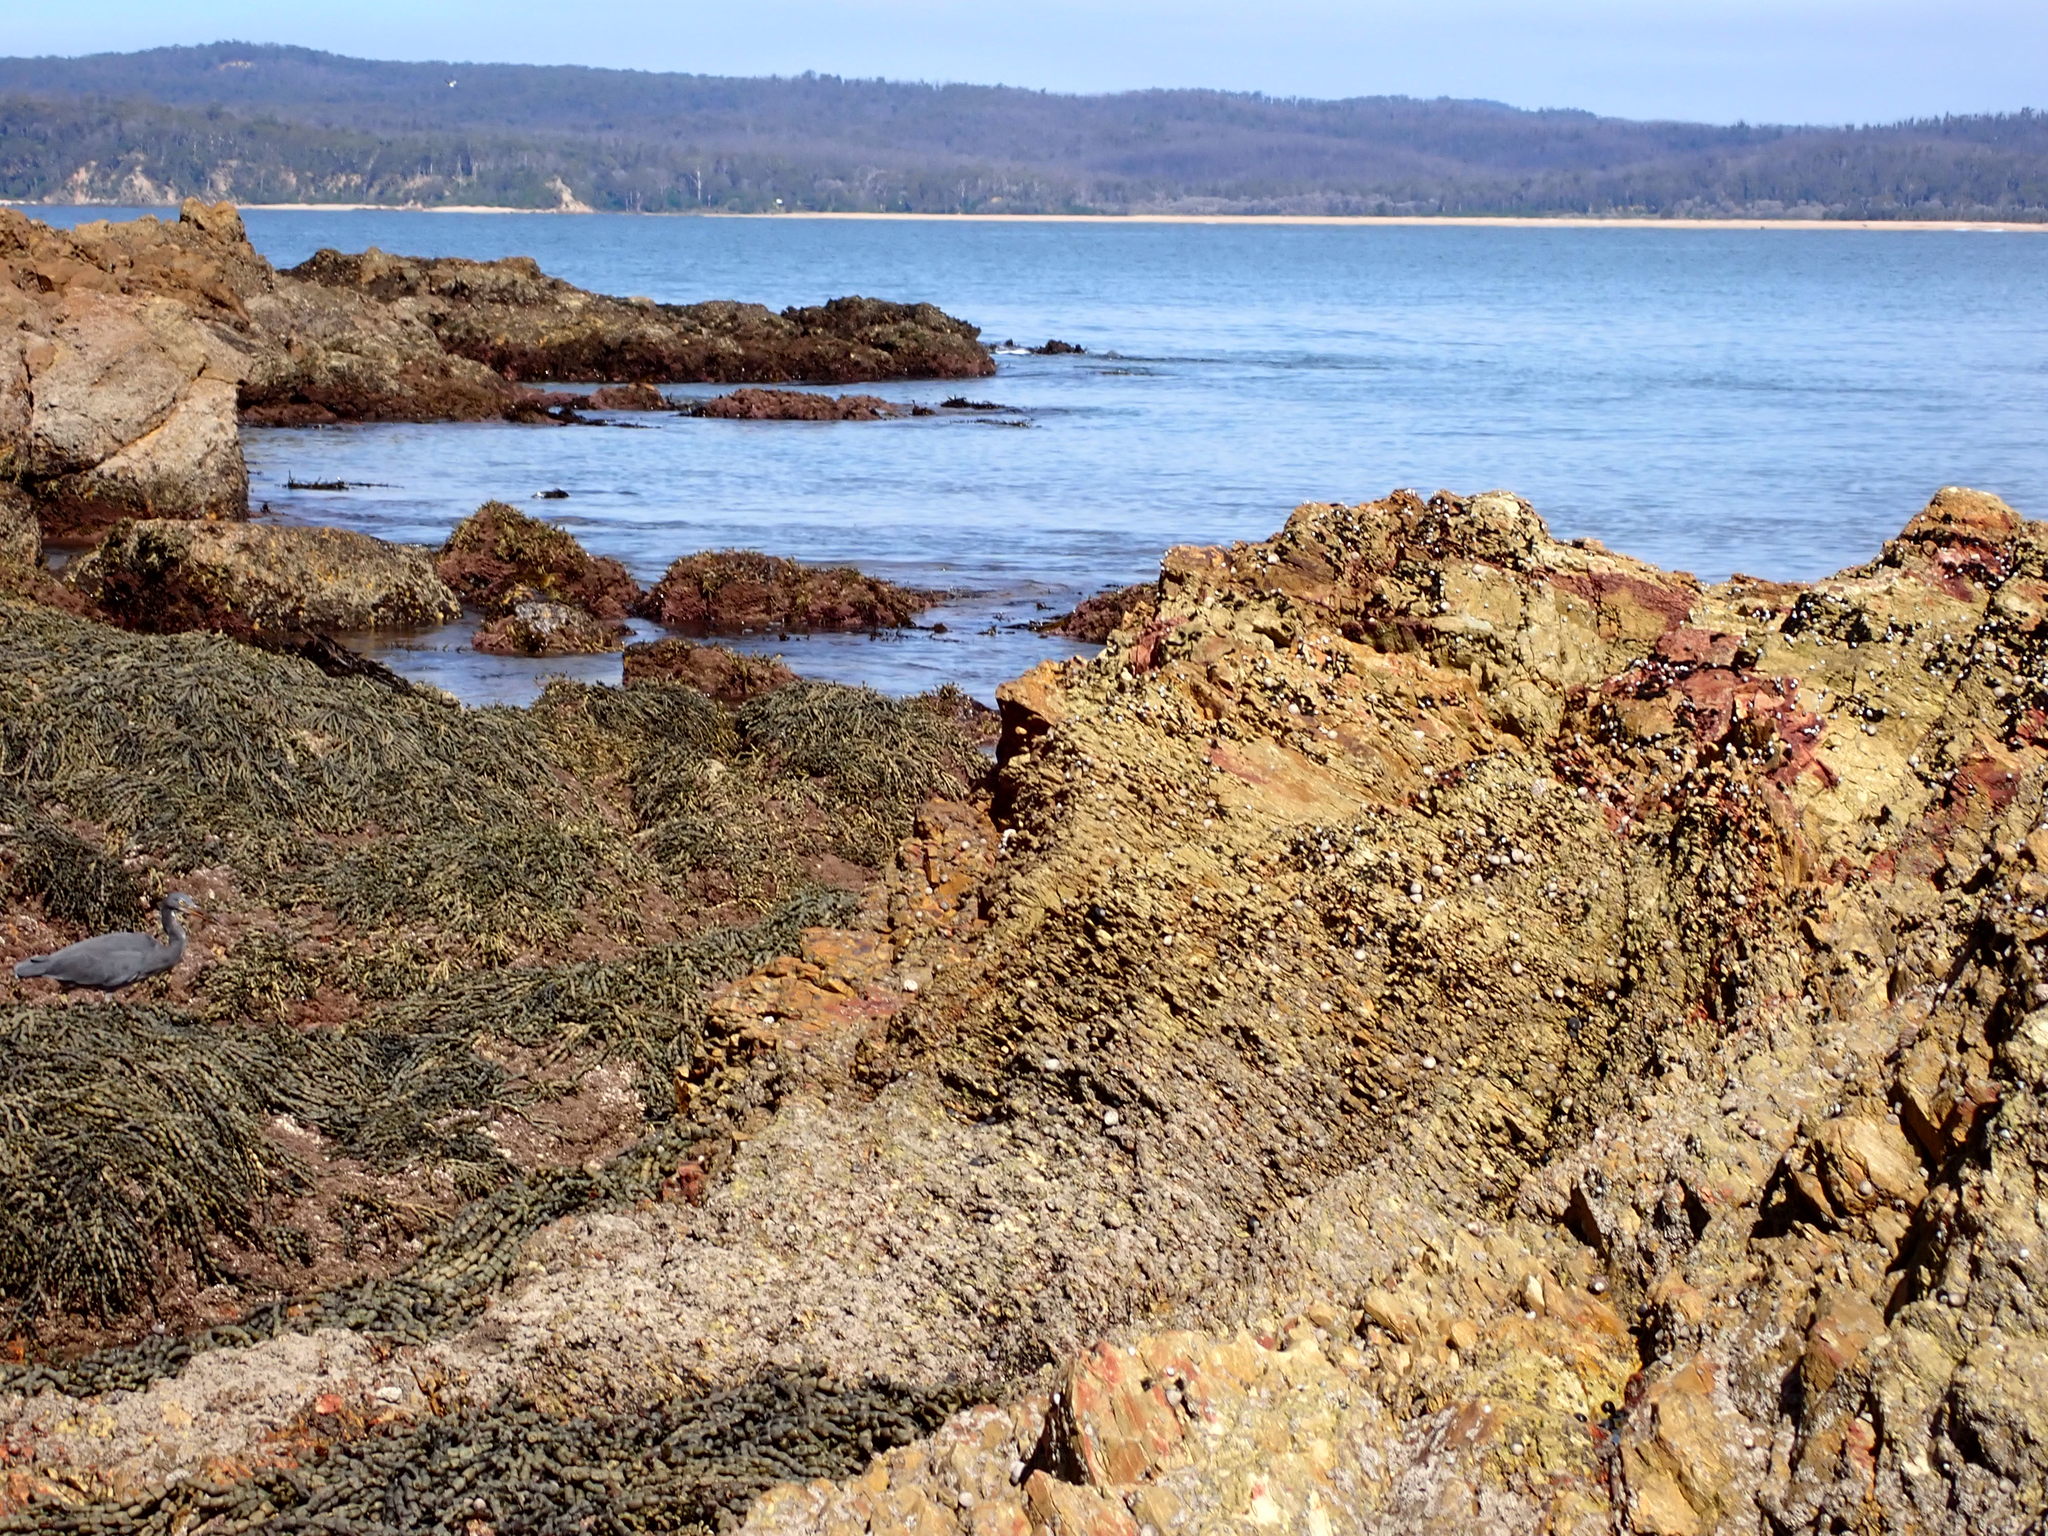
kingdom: Animalia
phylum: Chordata
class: Aves
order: Pelecaniformes
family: Ardeidae
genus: Egretta
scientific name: Egretta sacra
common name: Pacific reef heron
